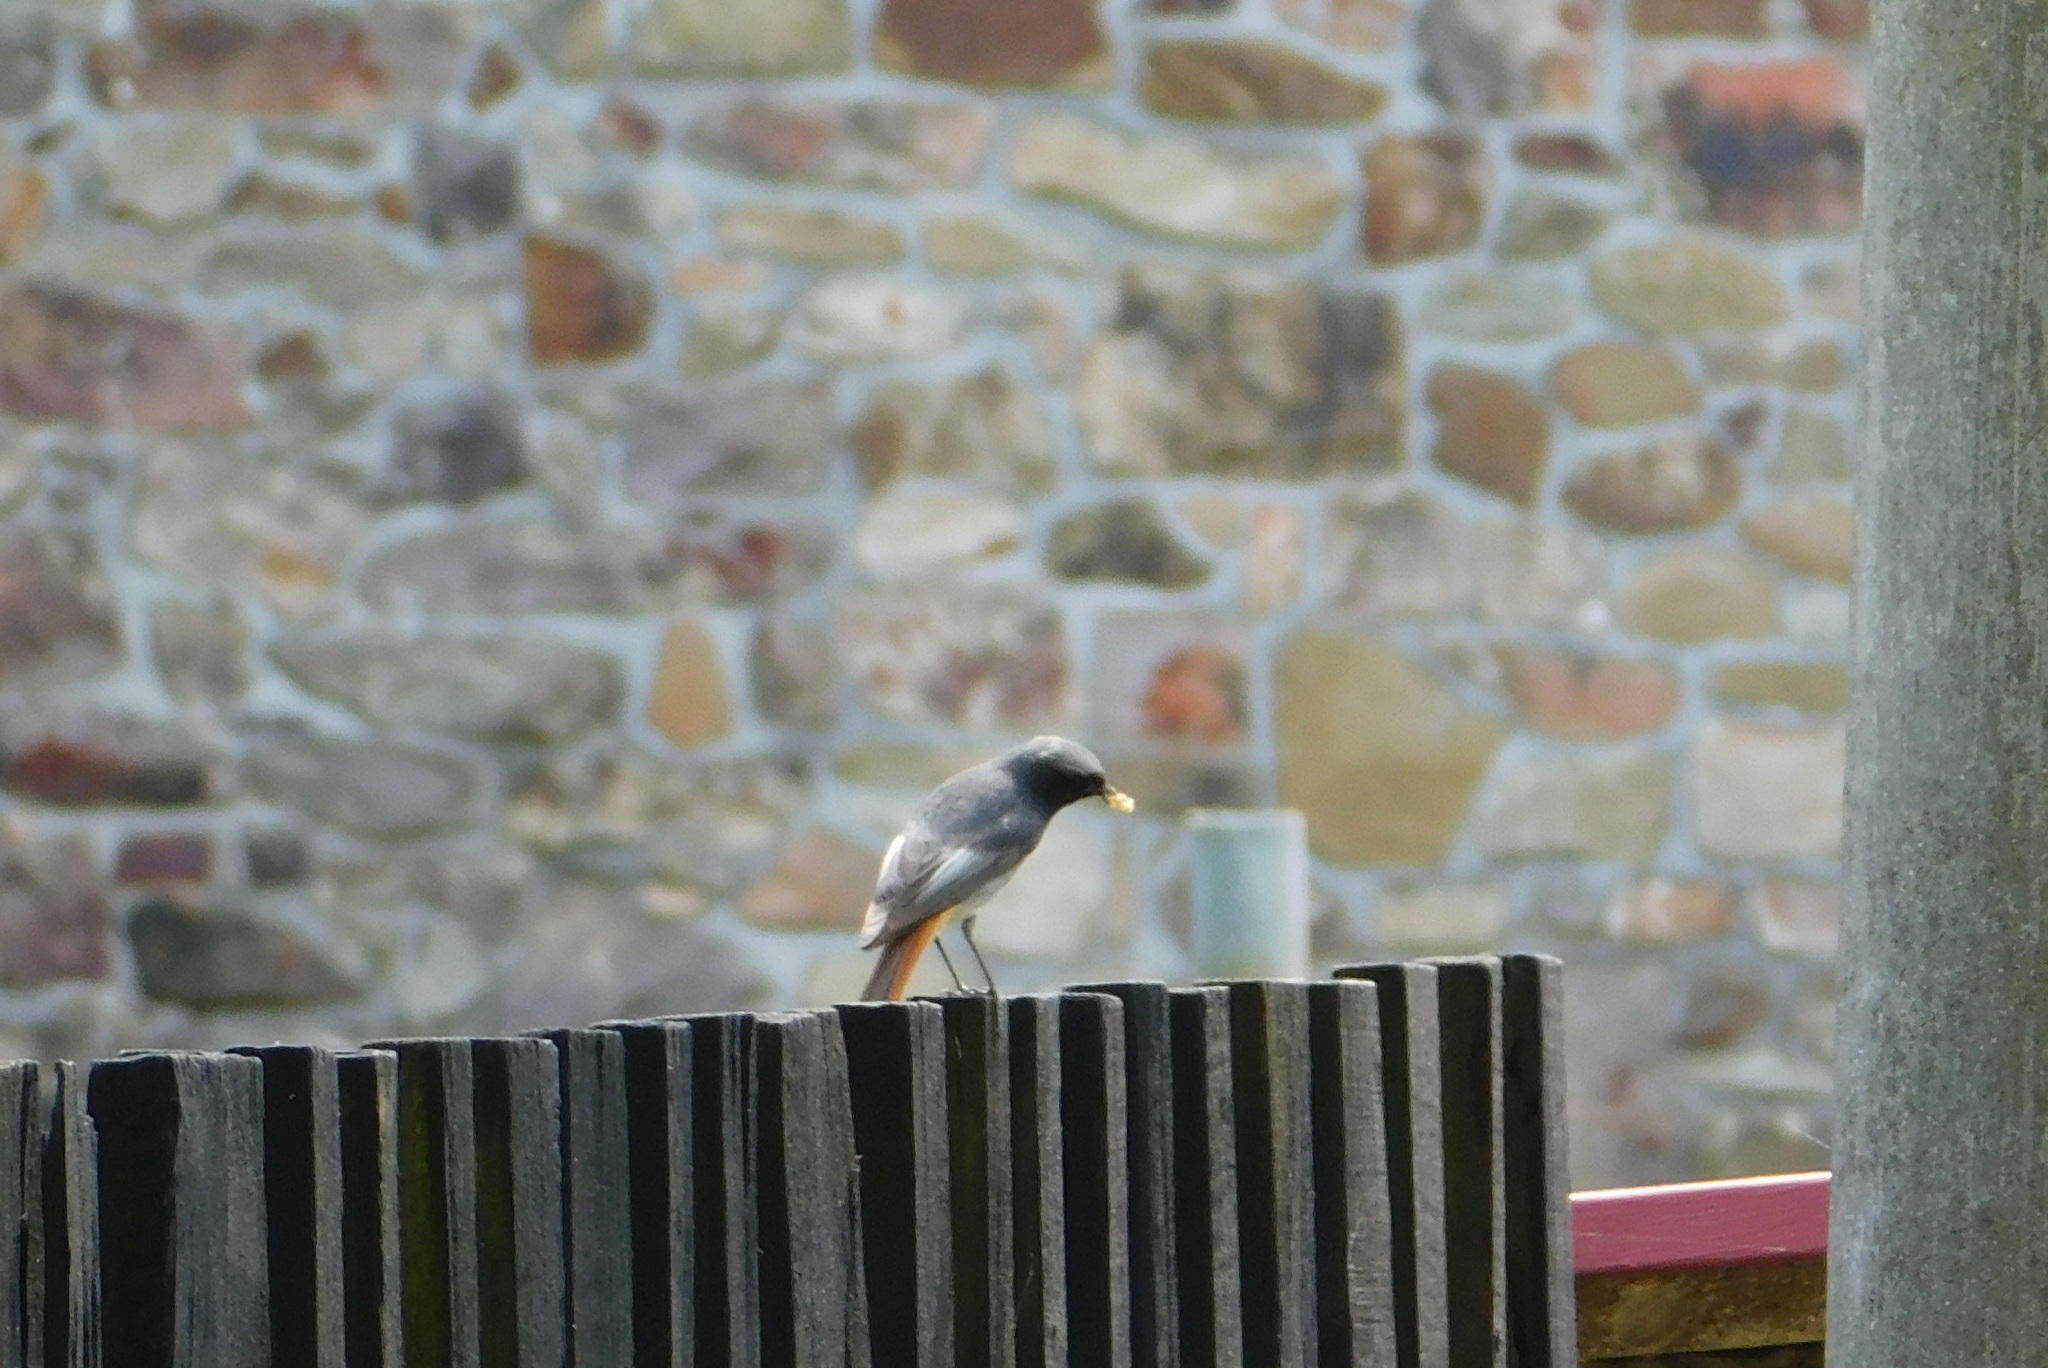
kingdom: Animalia
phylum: Chordata
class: Aves
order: Passeriformes
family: Muscicapidae
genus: Phoenicurus
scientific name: Phoenicurus ochruros
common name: Black redstart
